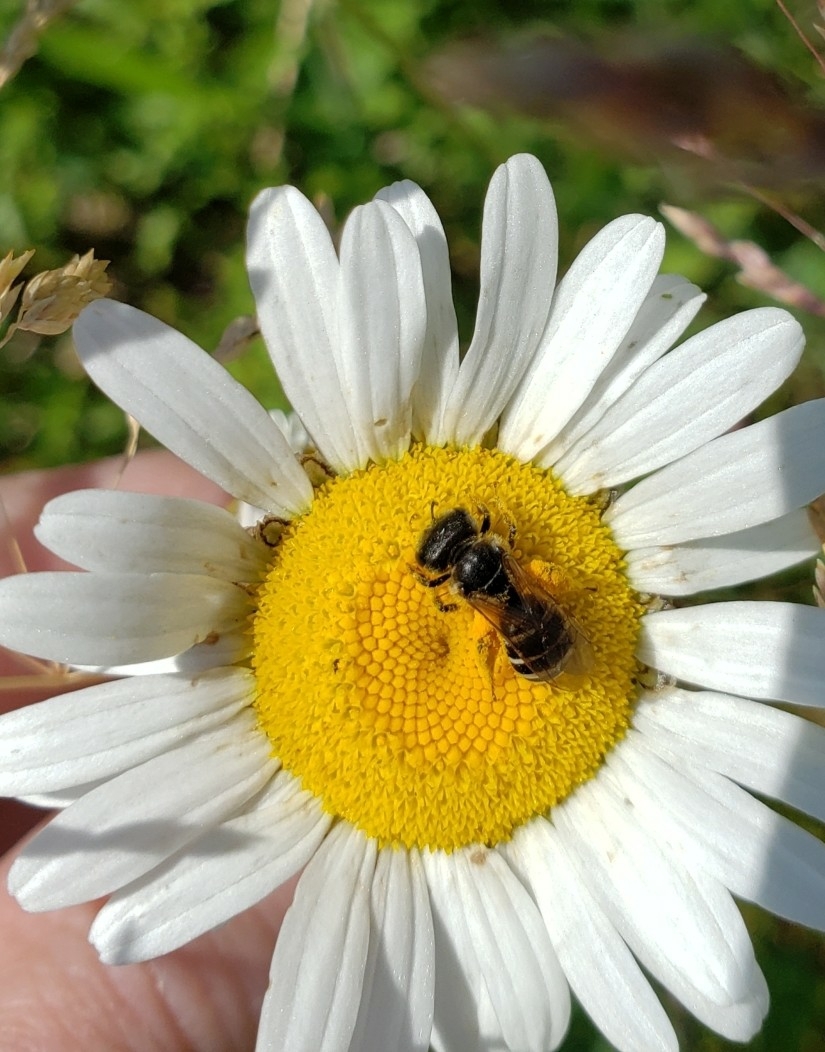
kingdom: Animalia
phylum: Arthropoda
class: Insecta
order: Hymenoptera
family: Halictidae
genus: Halictus
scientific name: Halictus ligatus
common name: Ligated furrow bee
